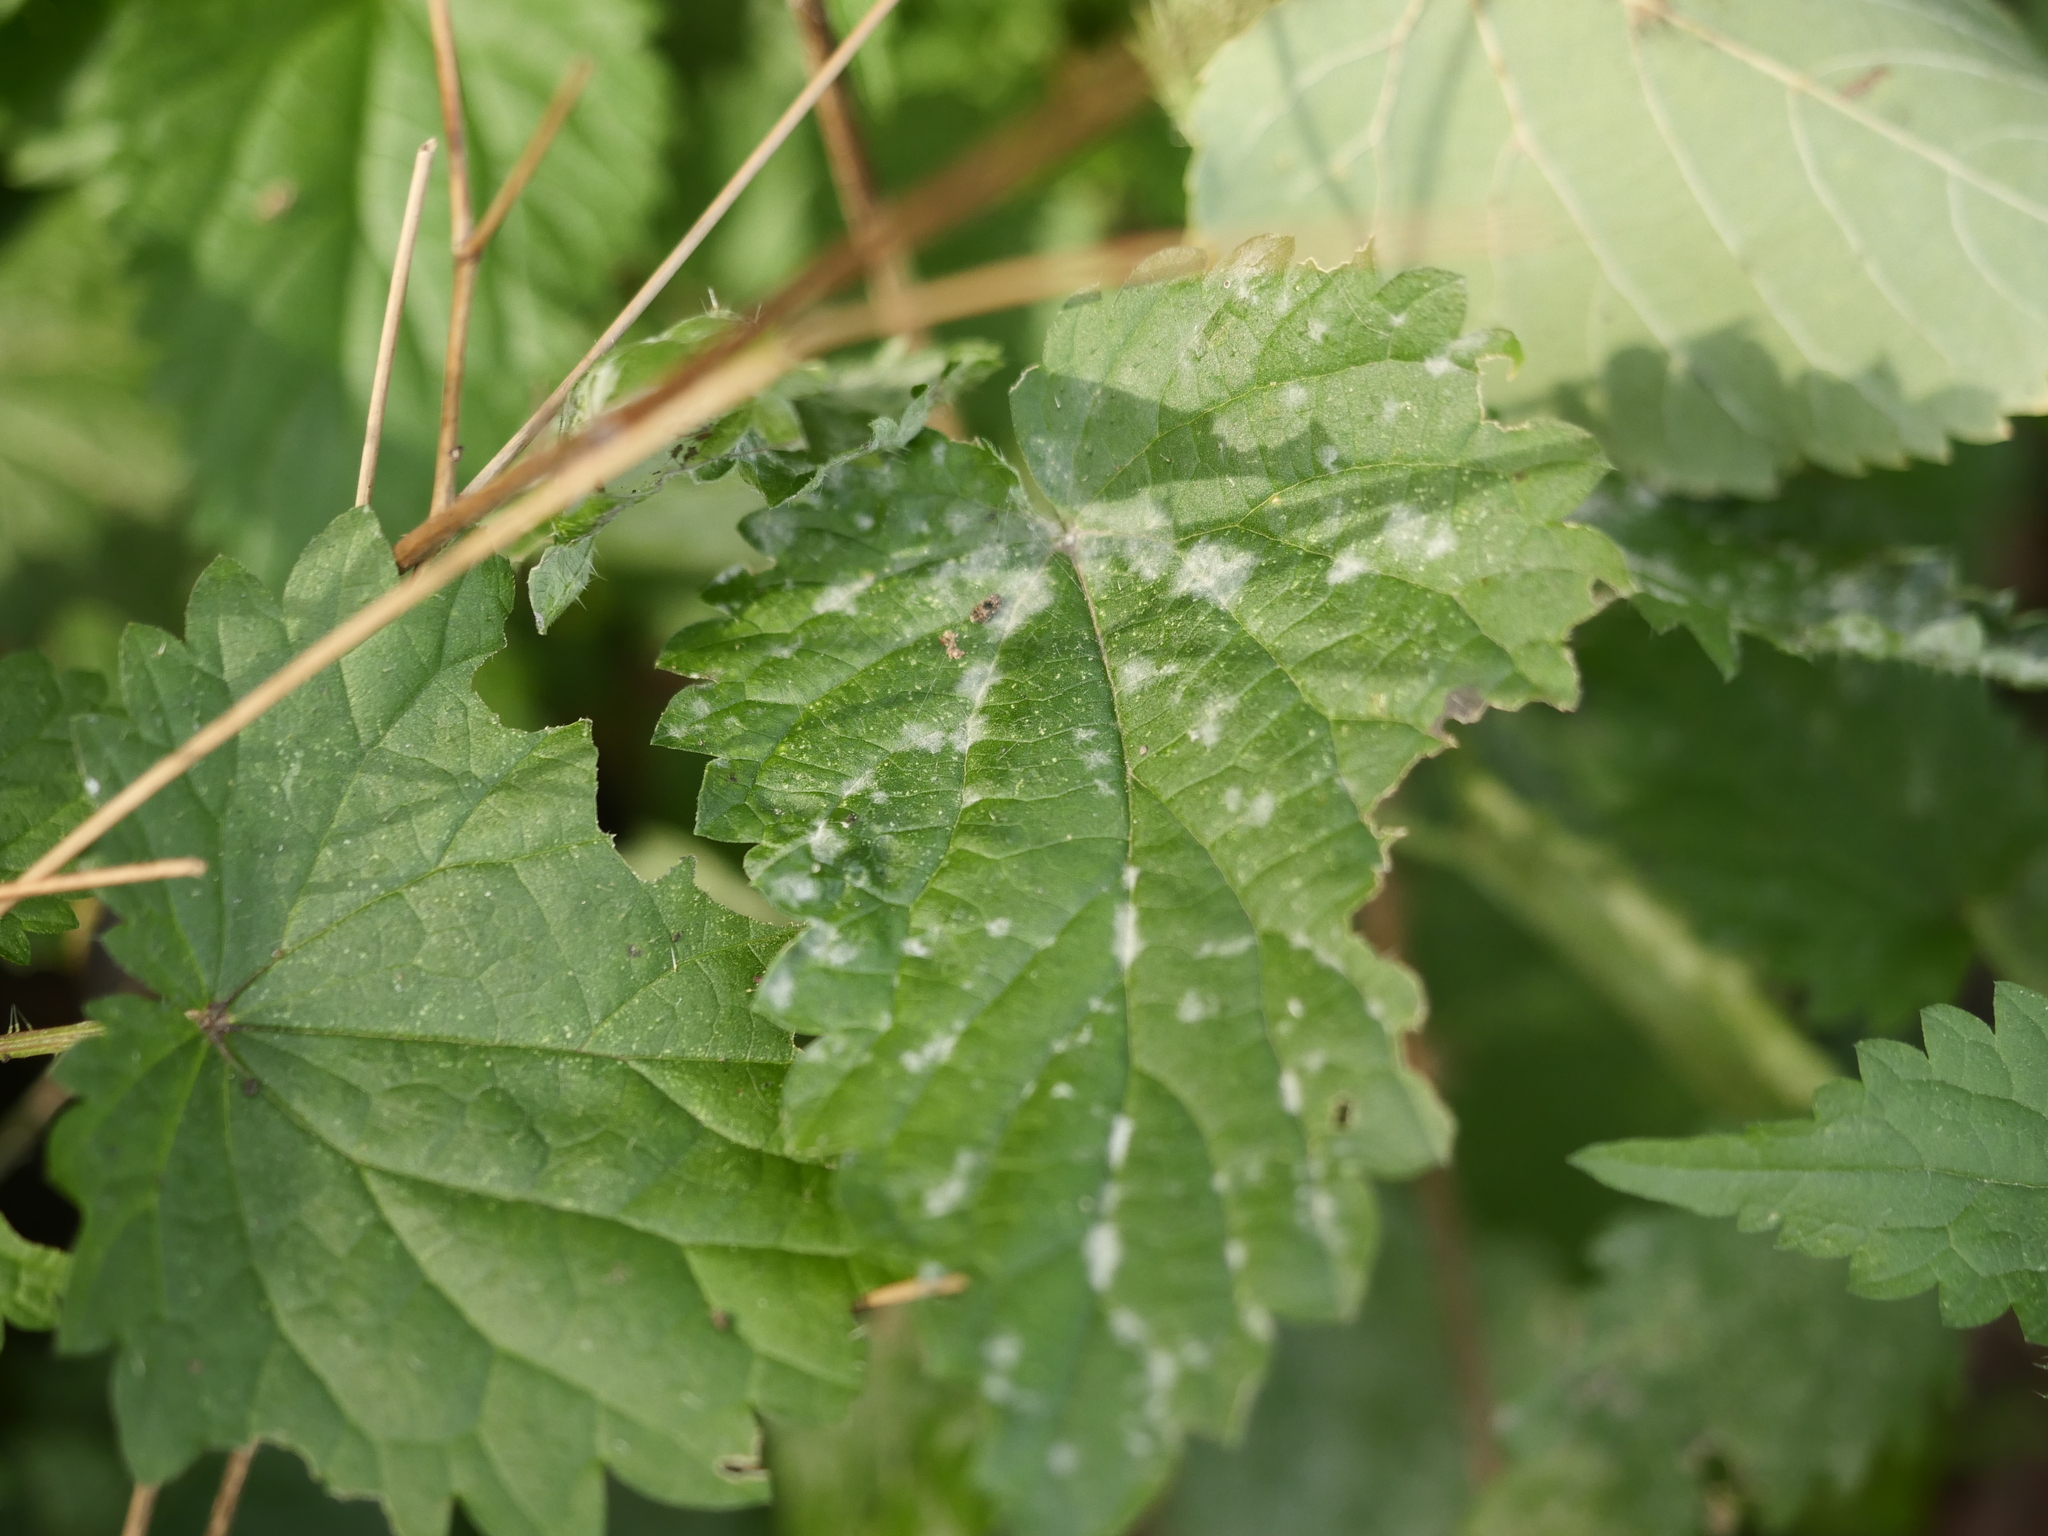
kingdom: Fungi
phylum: Ascomycota
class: Leotiomycetes
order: Helotiales
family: Erysiphaceae
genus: Erysiphe
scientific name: Erysiphe urticae
